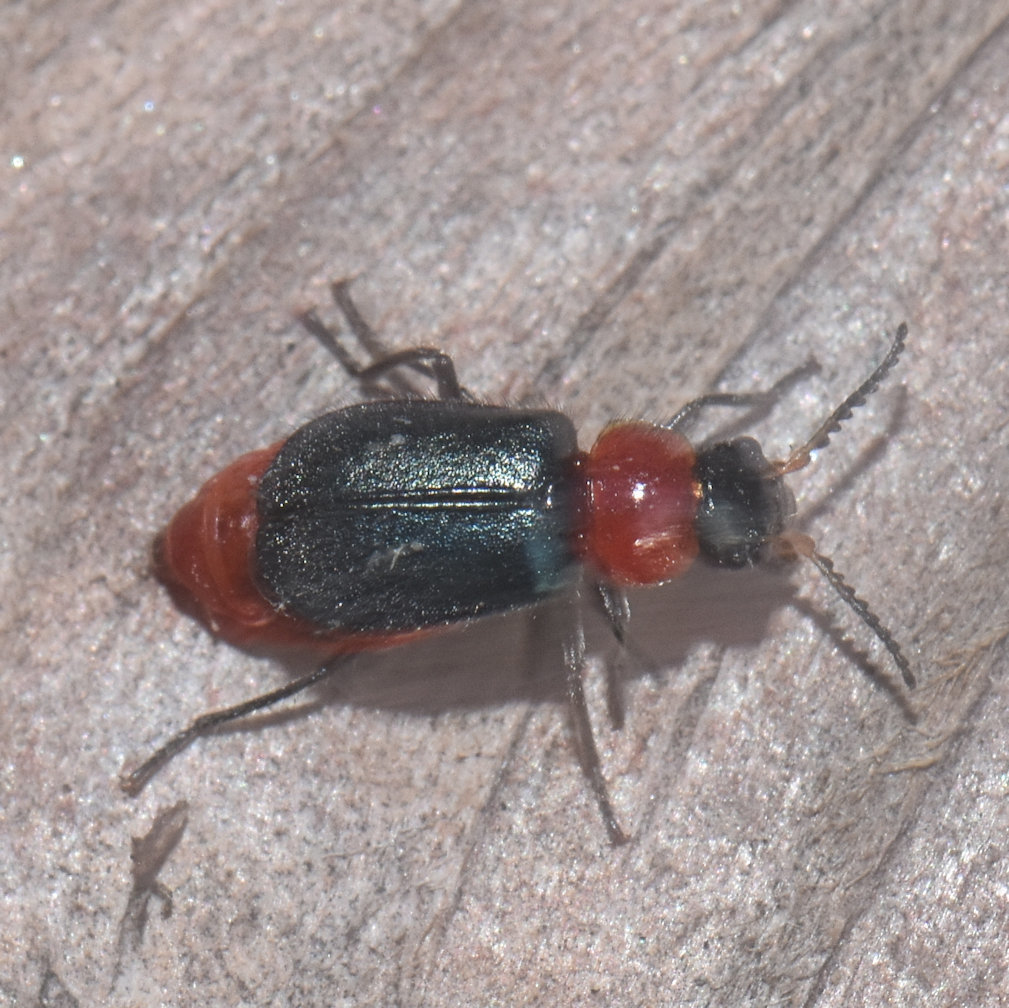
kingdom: Animalia
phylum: Arthropoda
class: Insecta
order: Coleoptera
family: Melyridae
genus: Collops
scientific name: Collops tricolor
